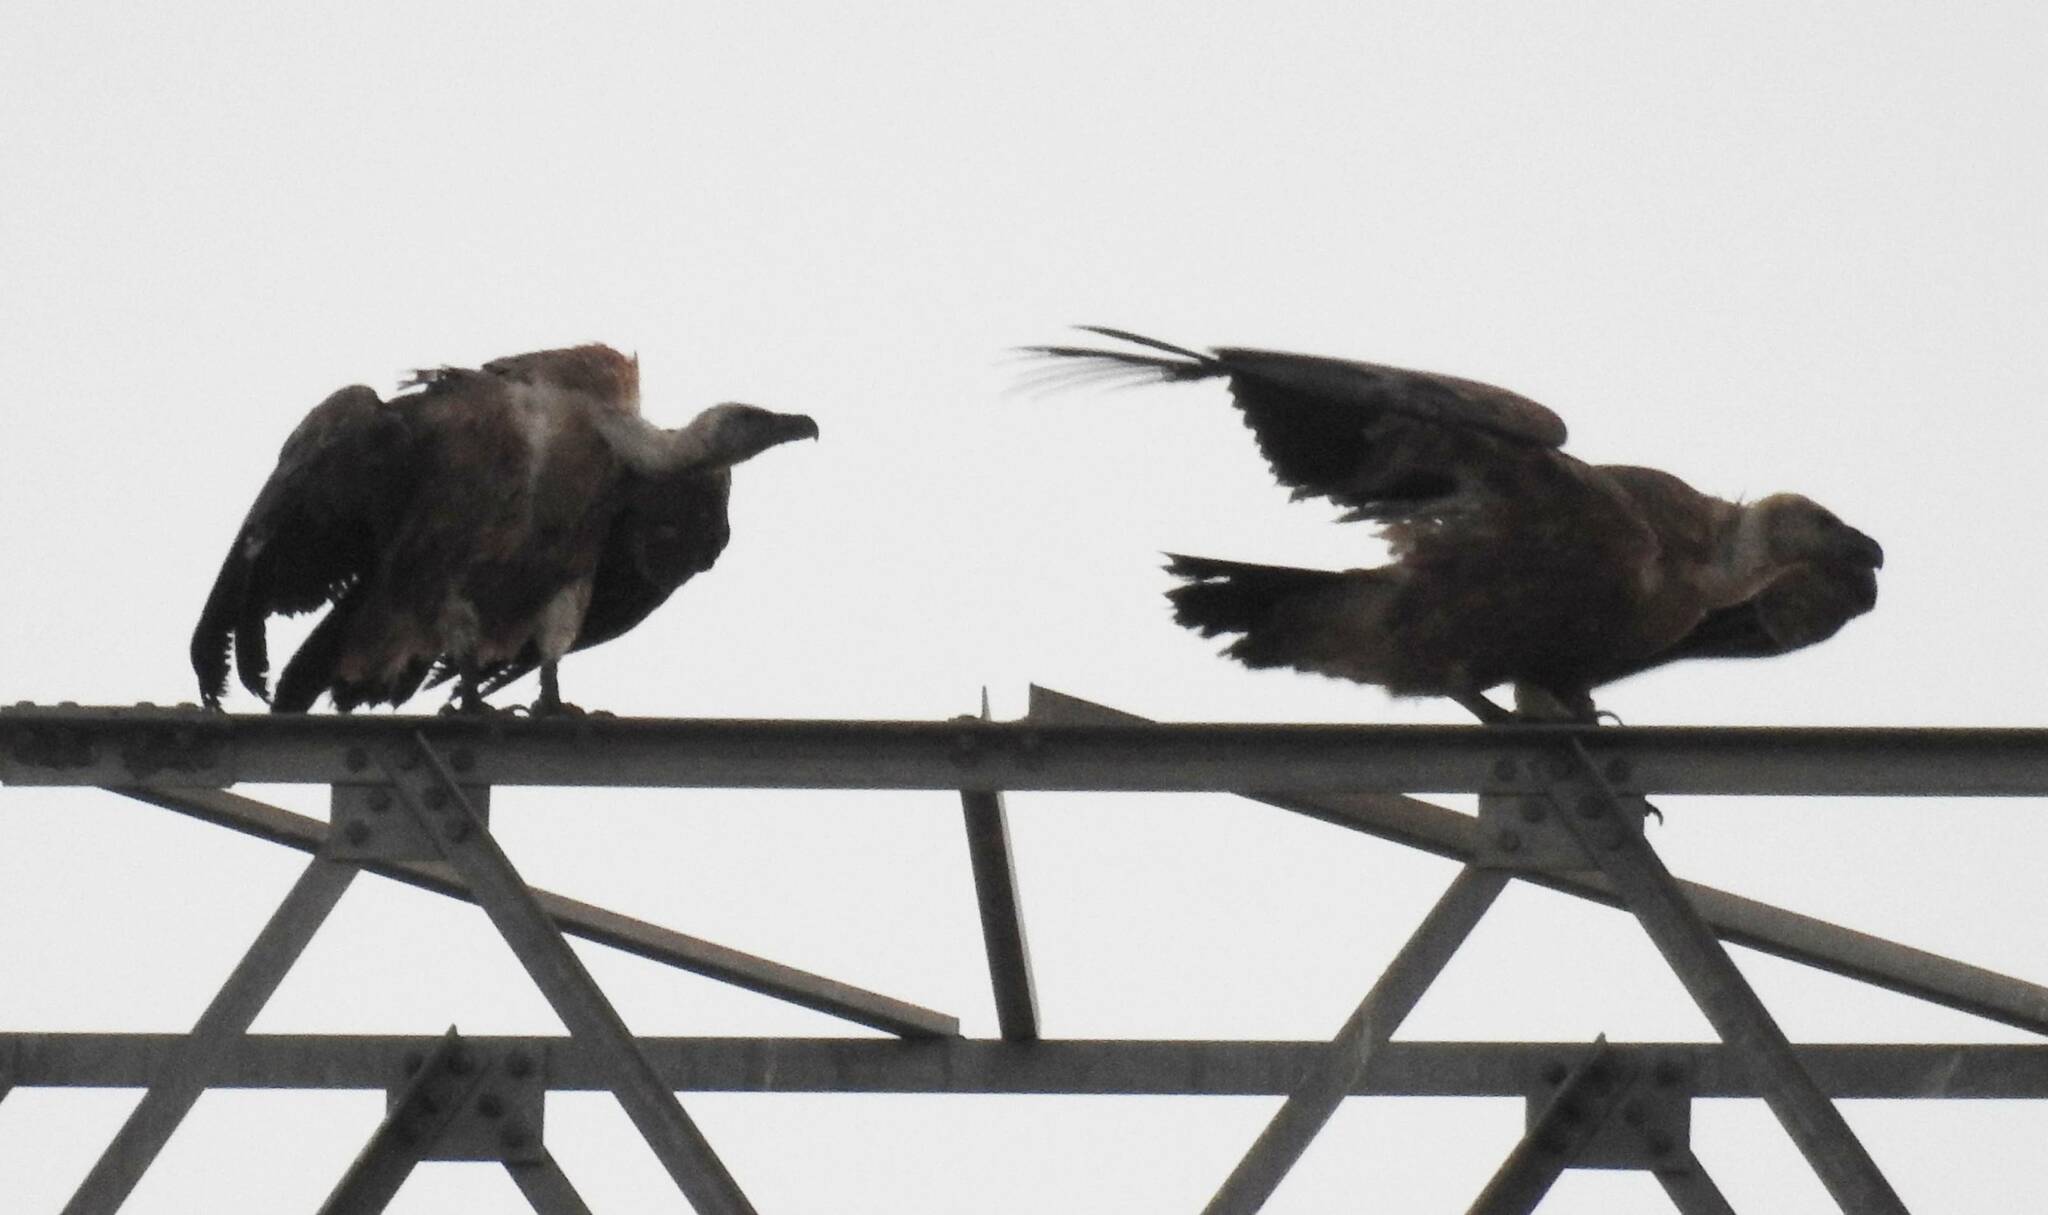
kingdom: Animalia
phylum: Chordata
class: Aves
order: Accipitriformes
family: Accipitridae
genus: Gyps
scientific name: Gyps fulvus
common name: Griffon vulture
